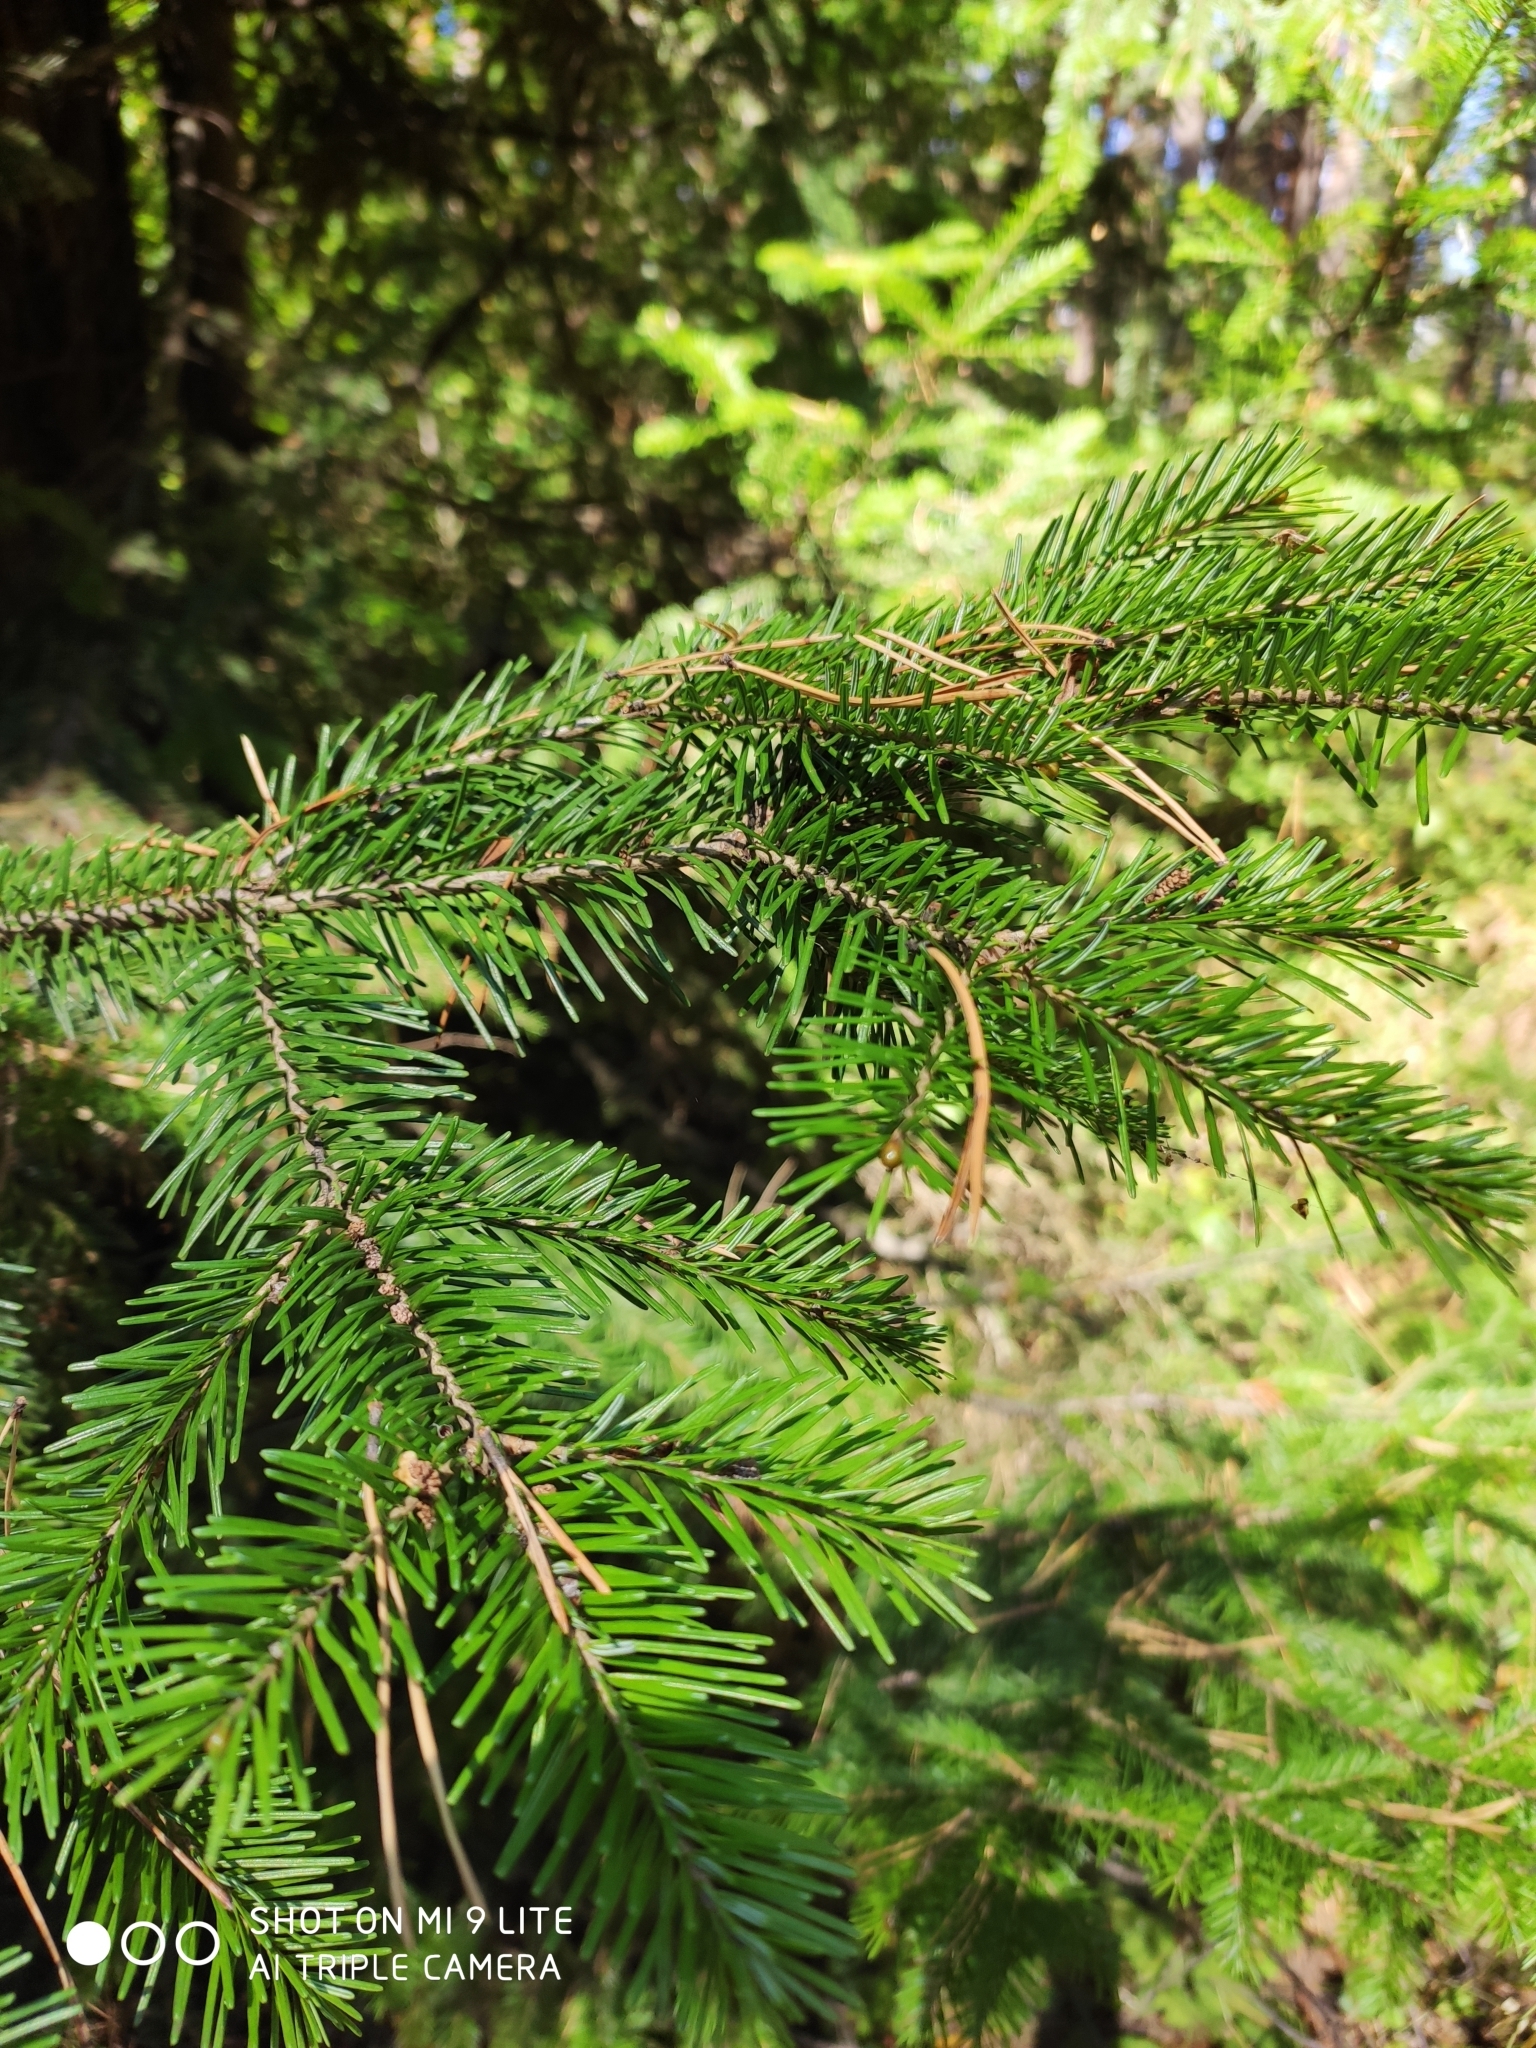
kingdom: Plantae
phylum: Tracheophyta
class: Pinopsida
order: Pinales
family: Pinaceae
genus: Abies
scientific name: Abies sibirica
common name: Siberian fir
